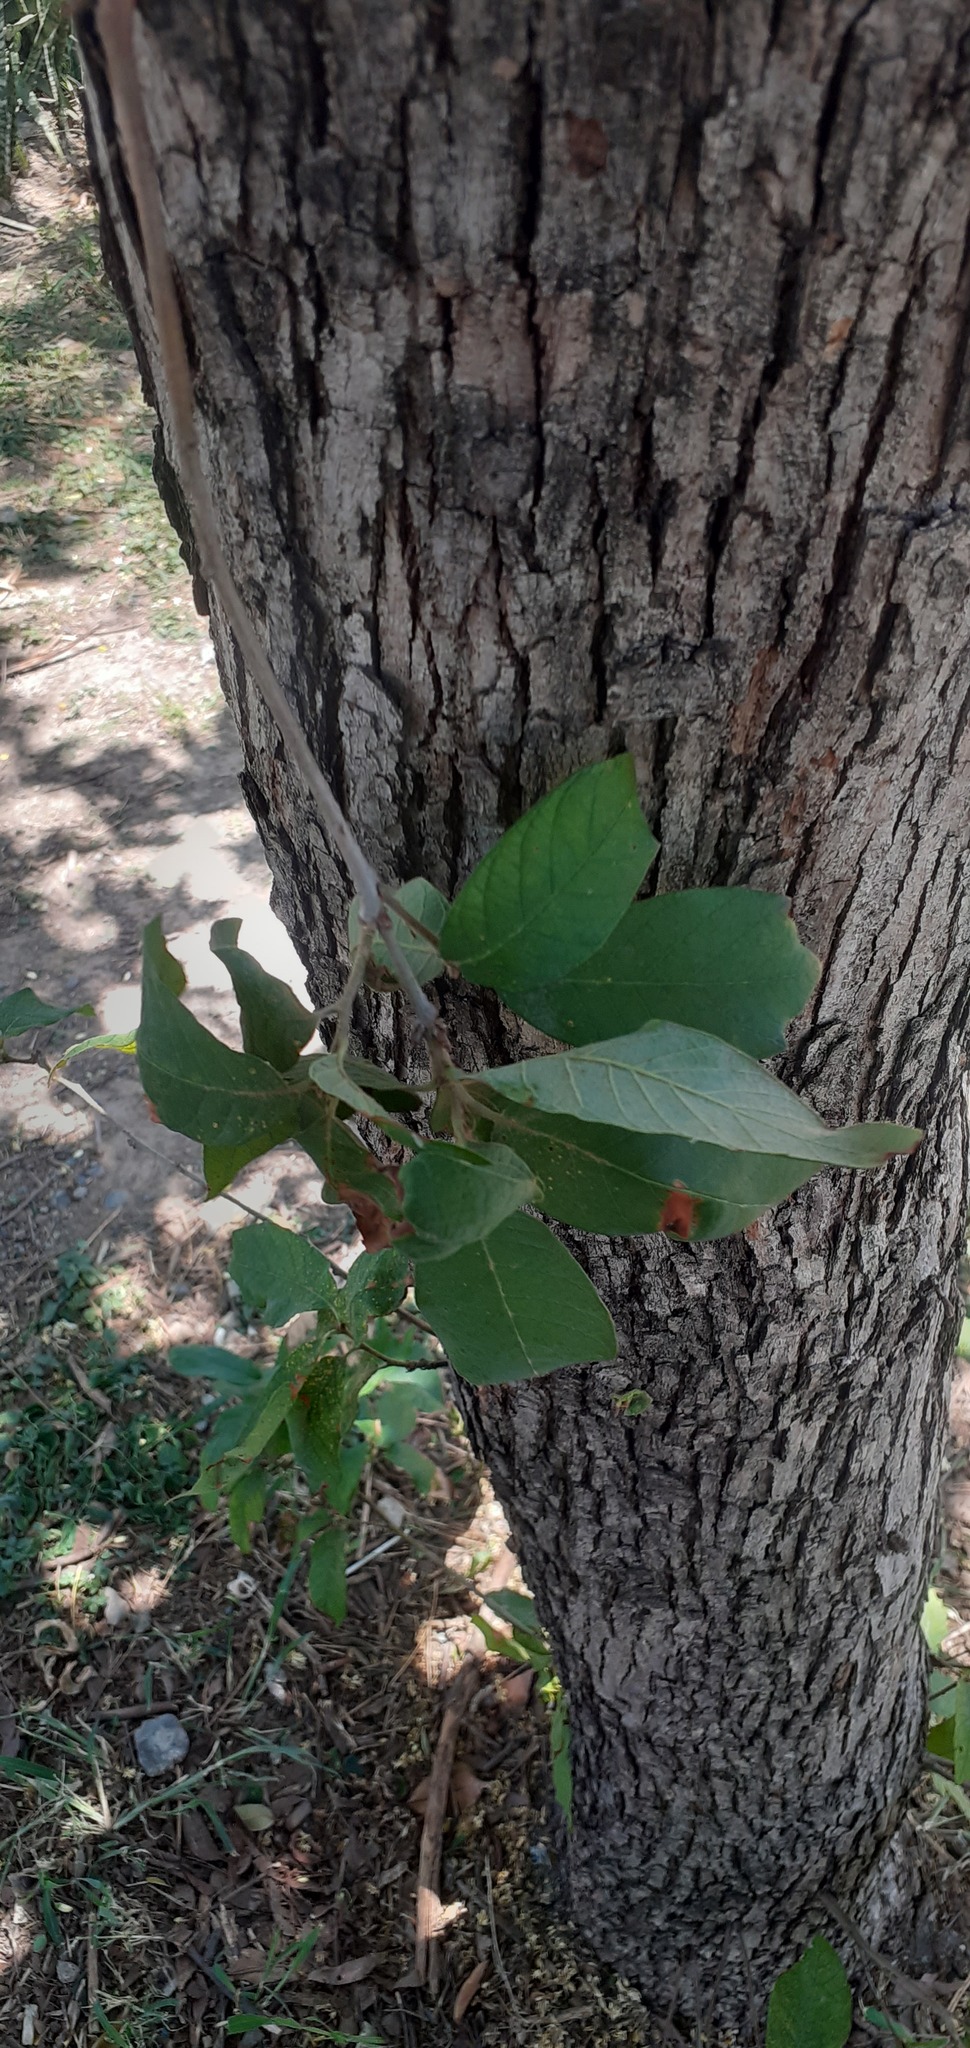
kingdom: Plantae
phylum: Tracheophyta
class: Magnoliopsida
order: Fagales
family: Fagaceae
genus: Quercus
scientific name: Quercus rugosa
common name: Netleaf oak
